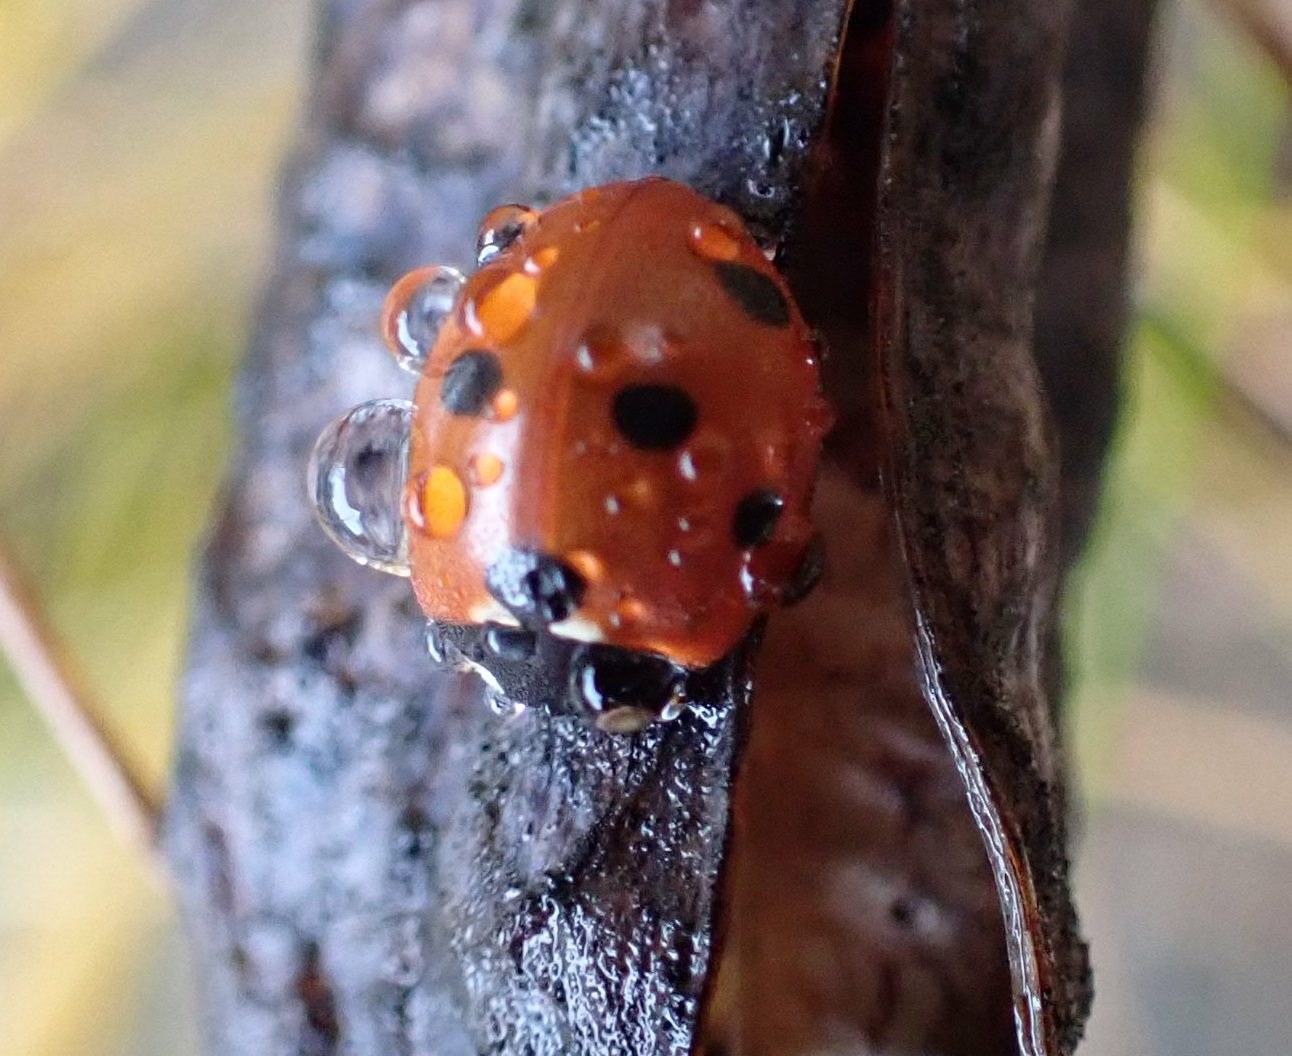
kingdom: Animalia
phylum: Arthropoda
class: Insecta
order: Coleoptera
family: Coccinellidae
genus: Coccinella
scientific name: Coccinella septempunctata
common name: Sevenspotted lady beetle
